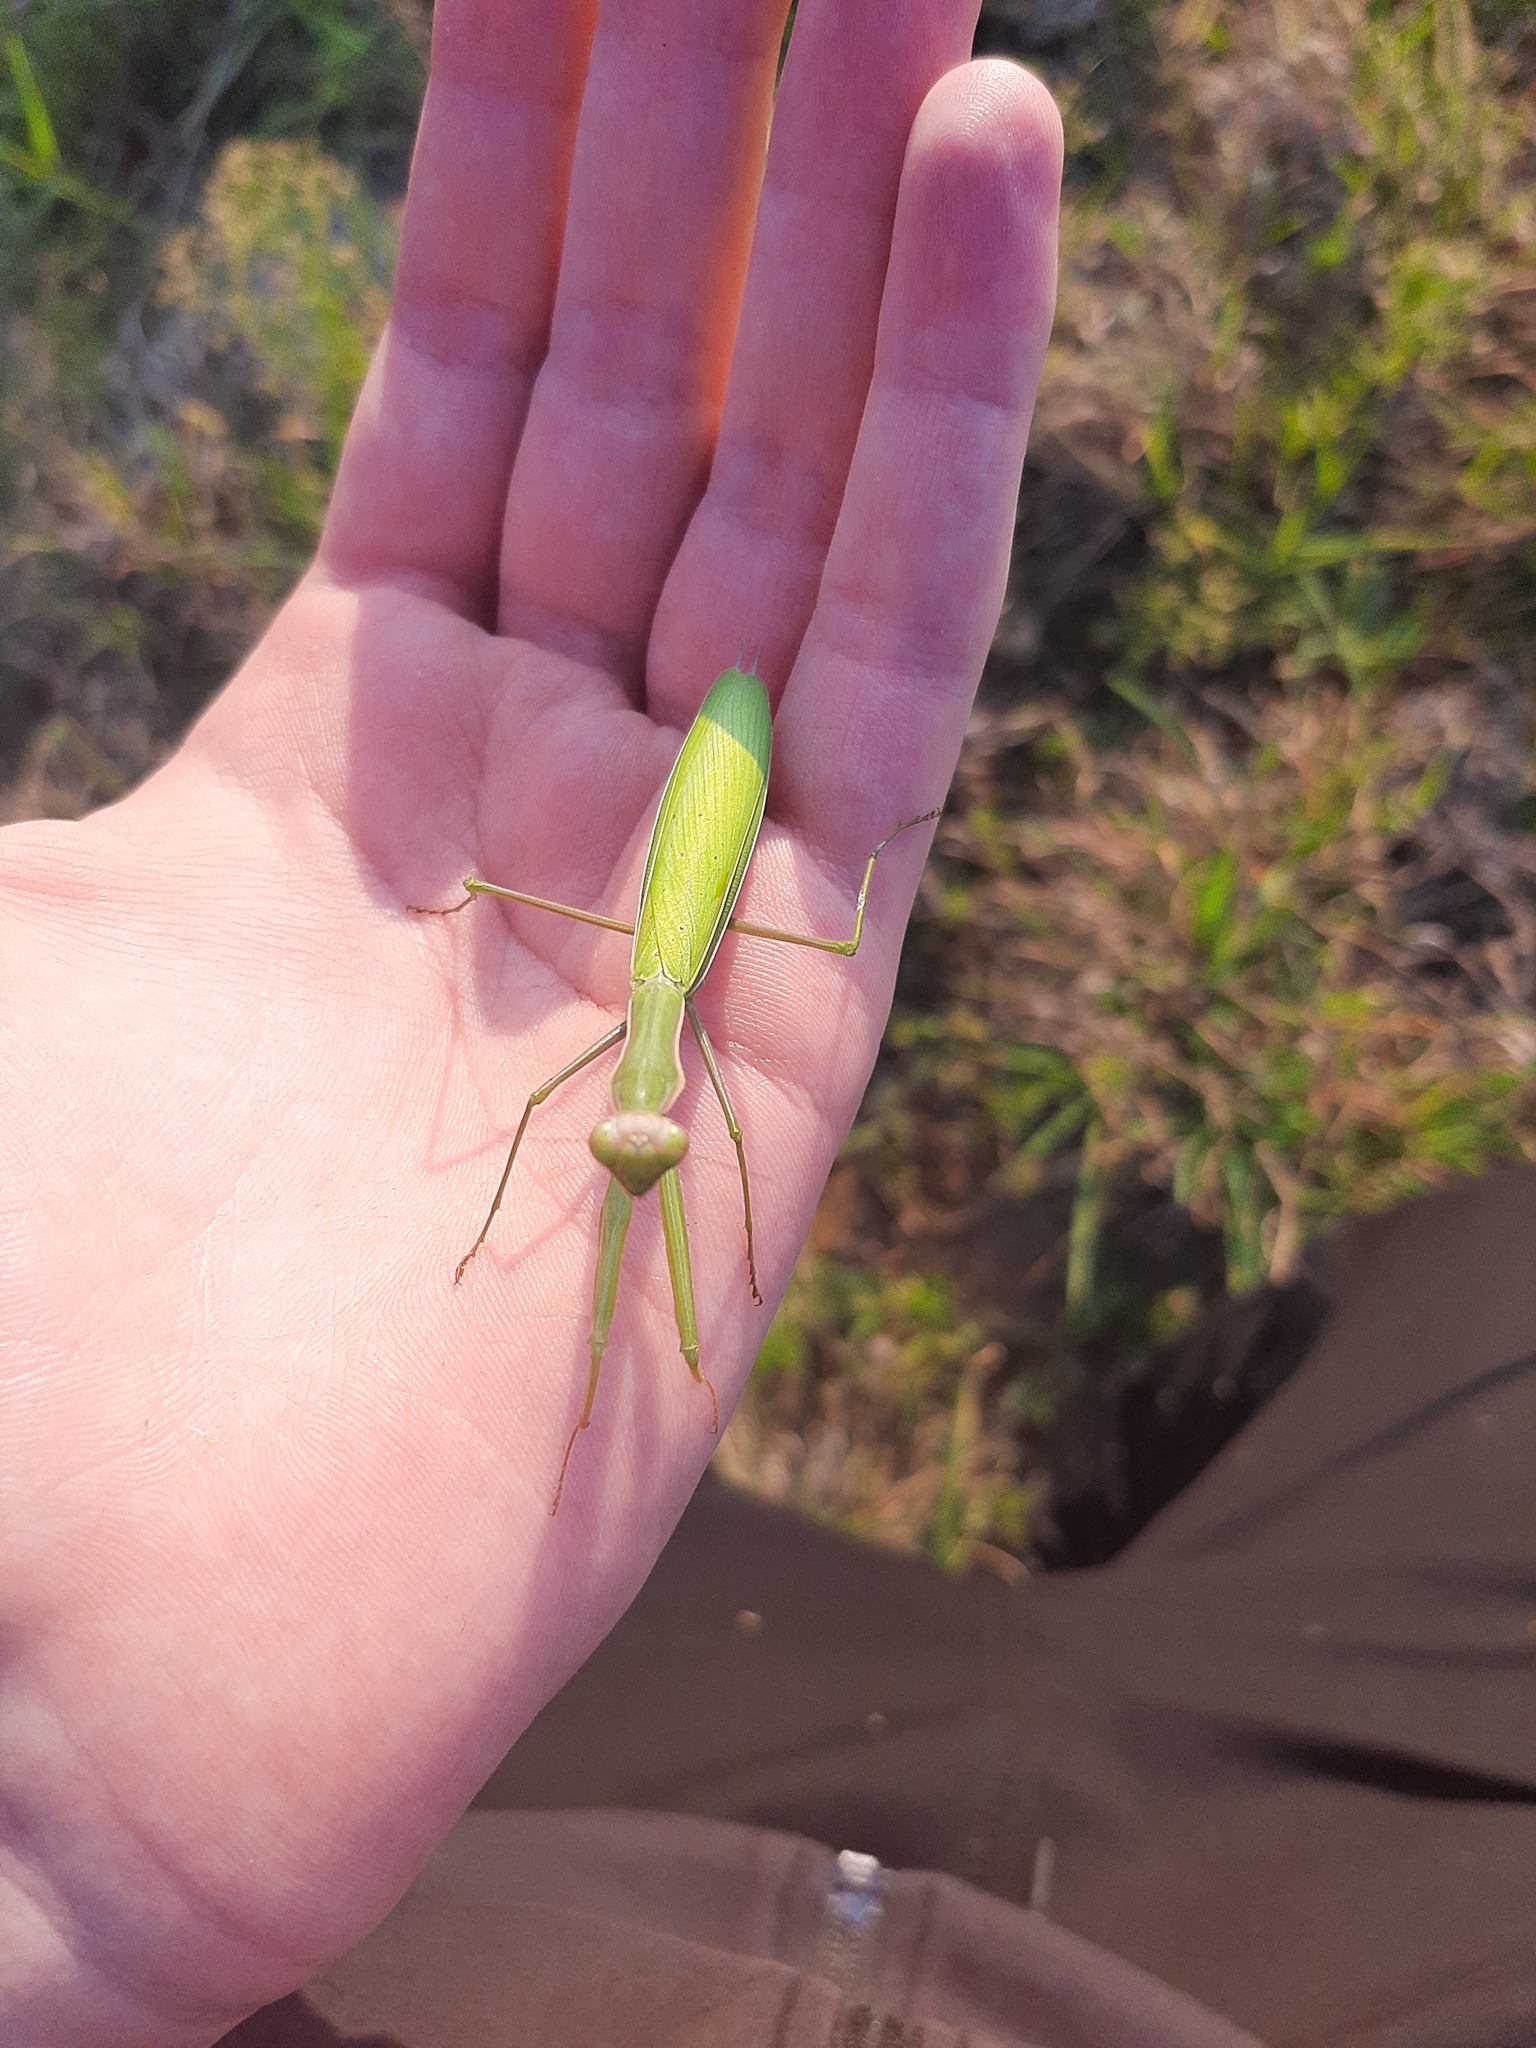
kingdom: Animalia
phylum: Arthropoda
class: Insecta
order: Mantodea
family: Mantidae
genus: Mantis
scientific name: Mantis religiosa
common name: Praying mantis
